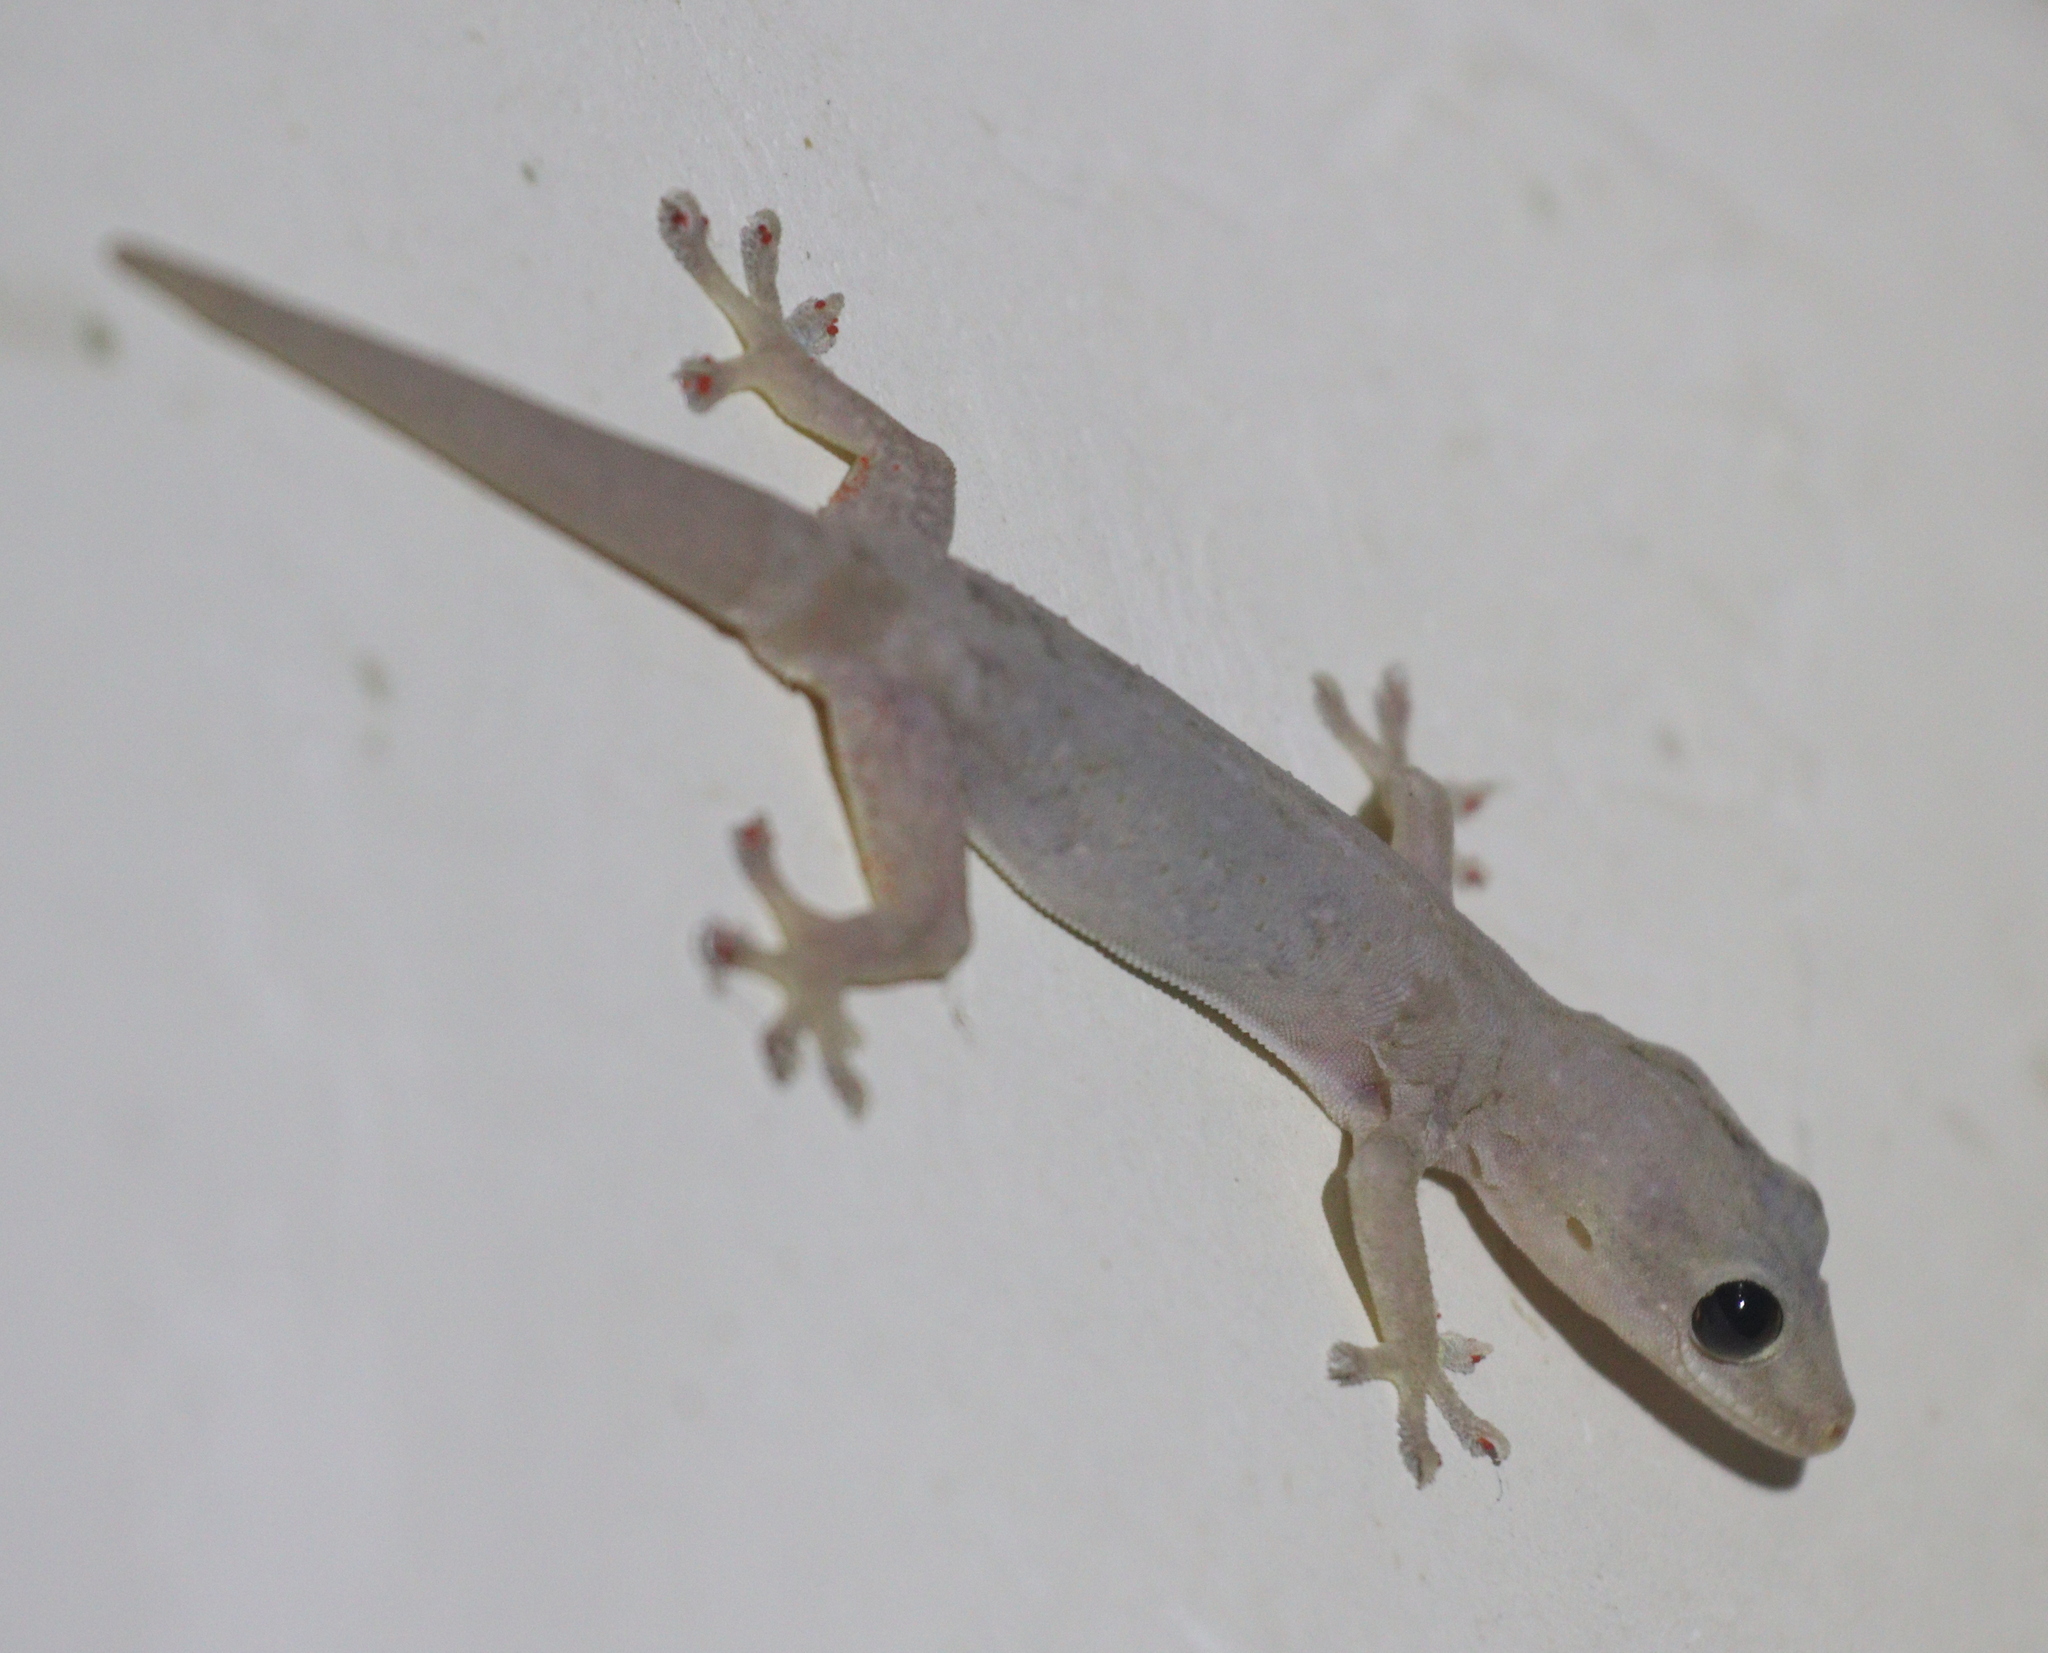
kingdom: Animalia
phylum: Chordata
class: Squamata
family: Gekkonidae
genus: Hemidactylus
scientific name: Hemidactylus frenatus
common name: Common house gecko
